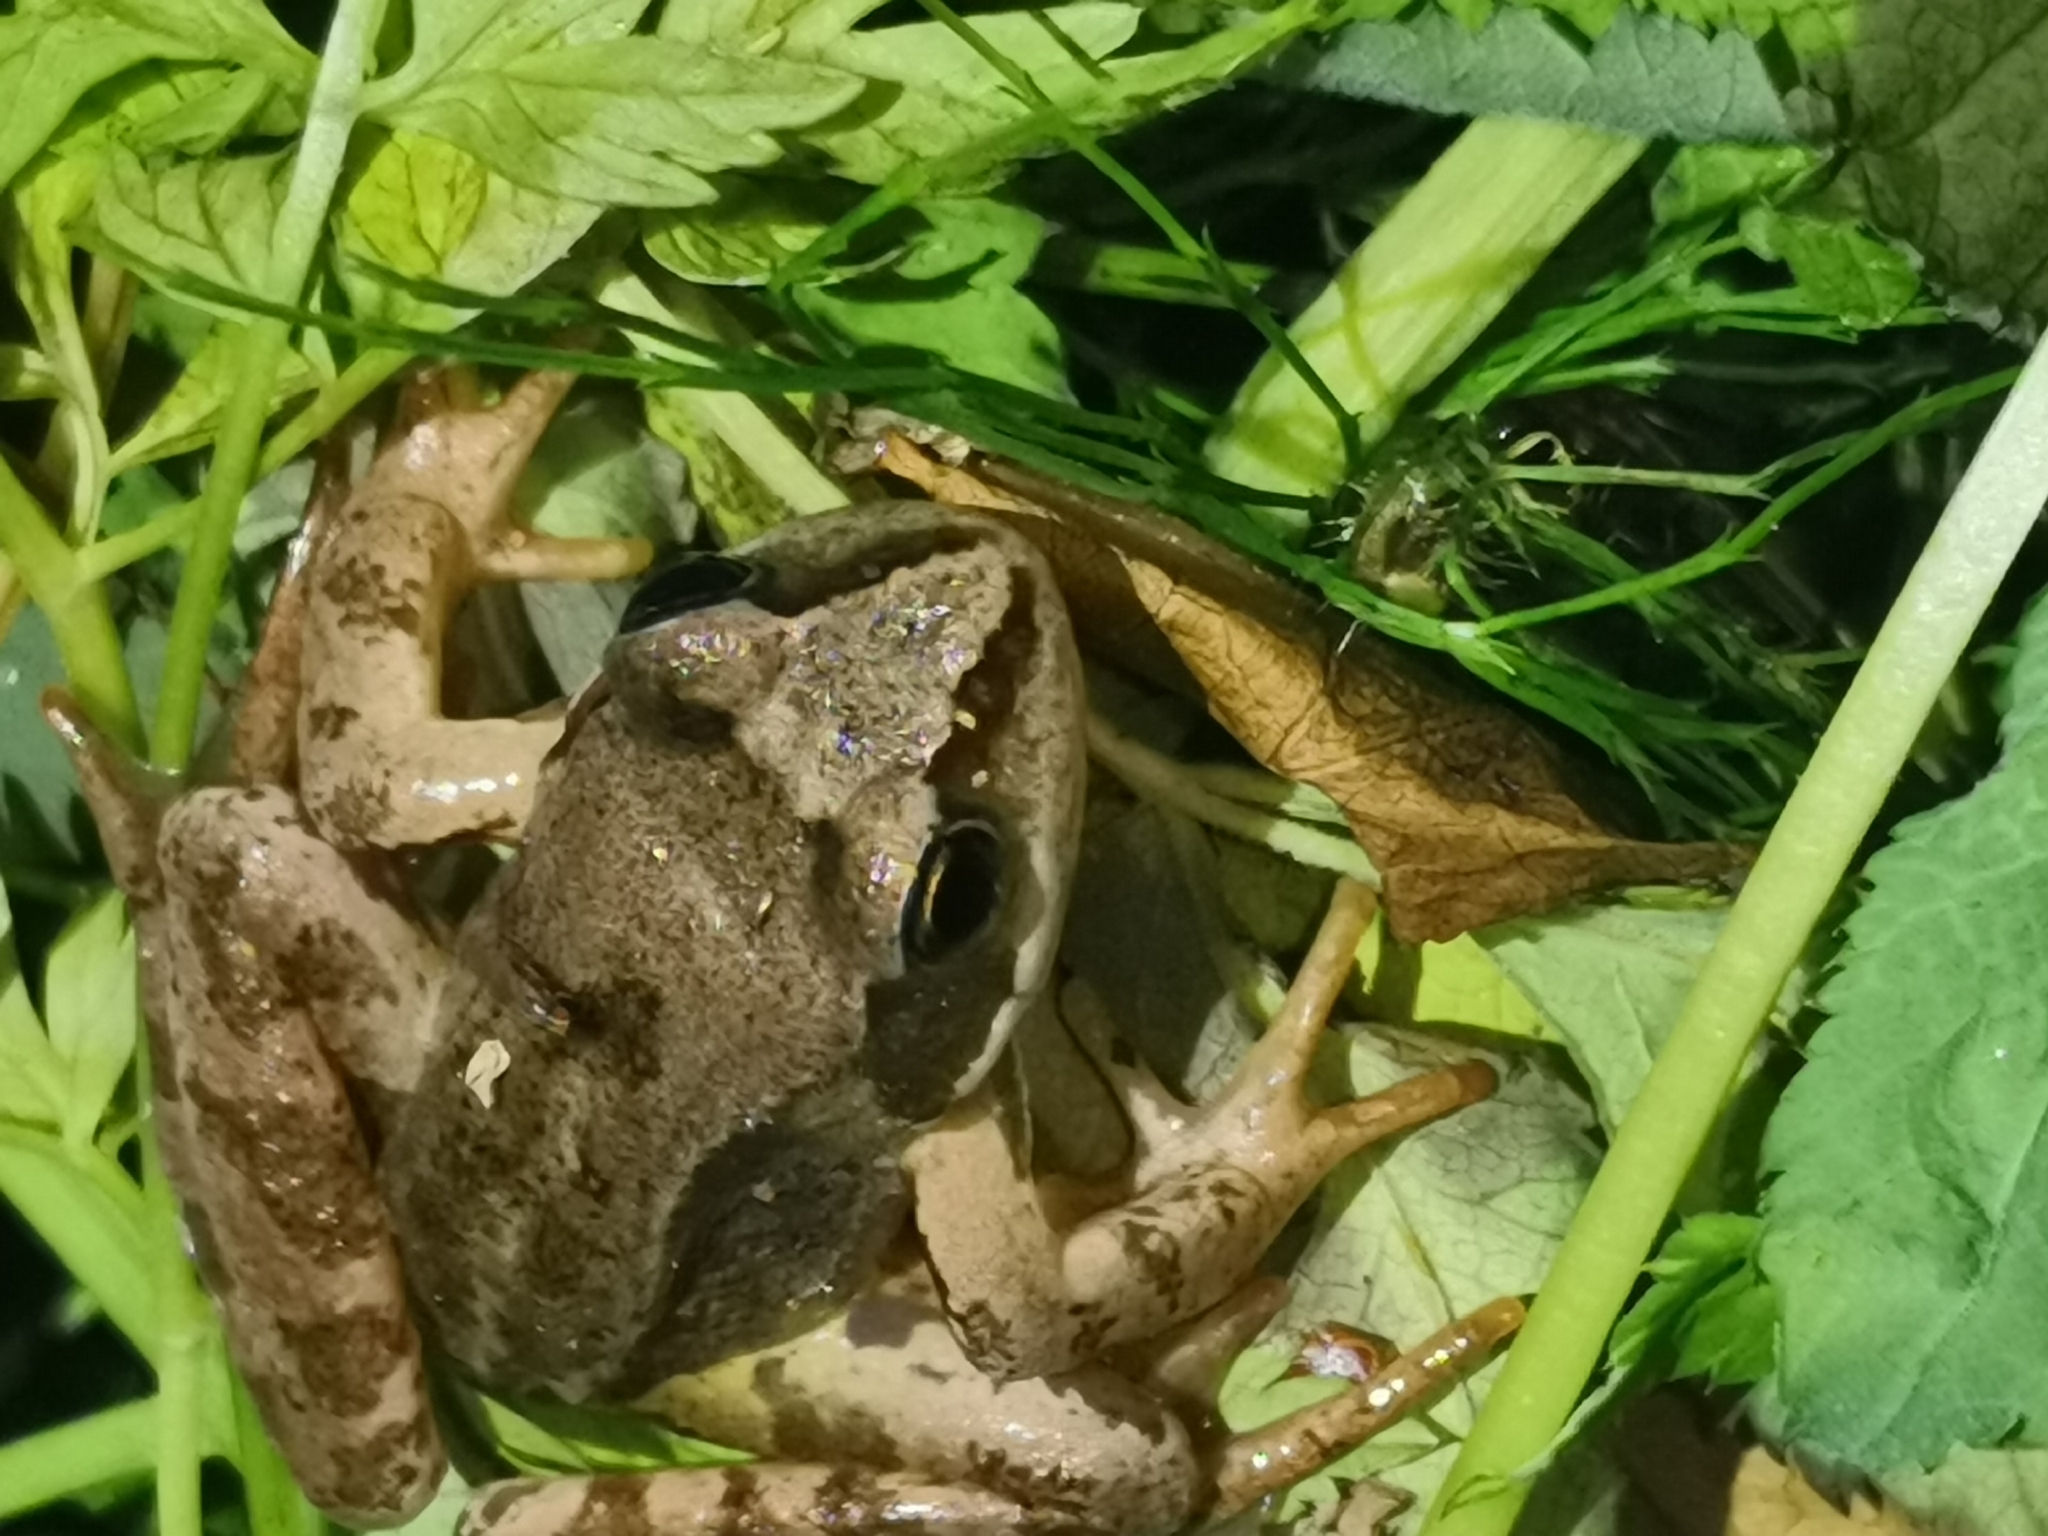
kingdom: Animalia
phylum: Chordata
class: Amphibia
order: Anura
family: Ranidae
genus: Rana
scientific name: Rana temporaria
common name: Common frog
